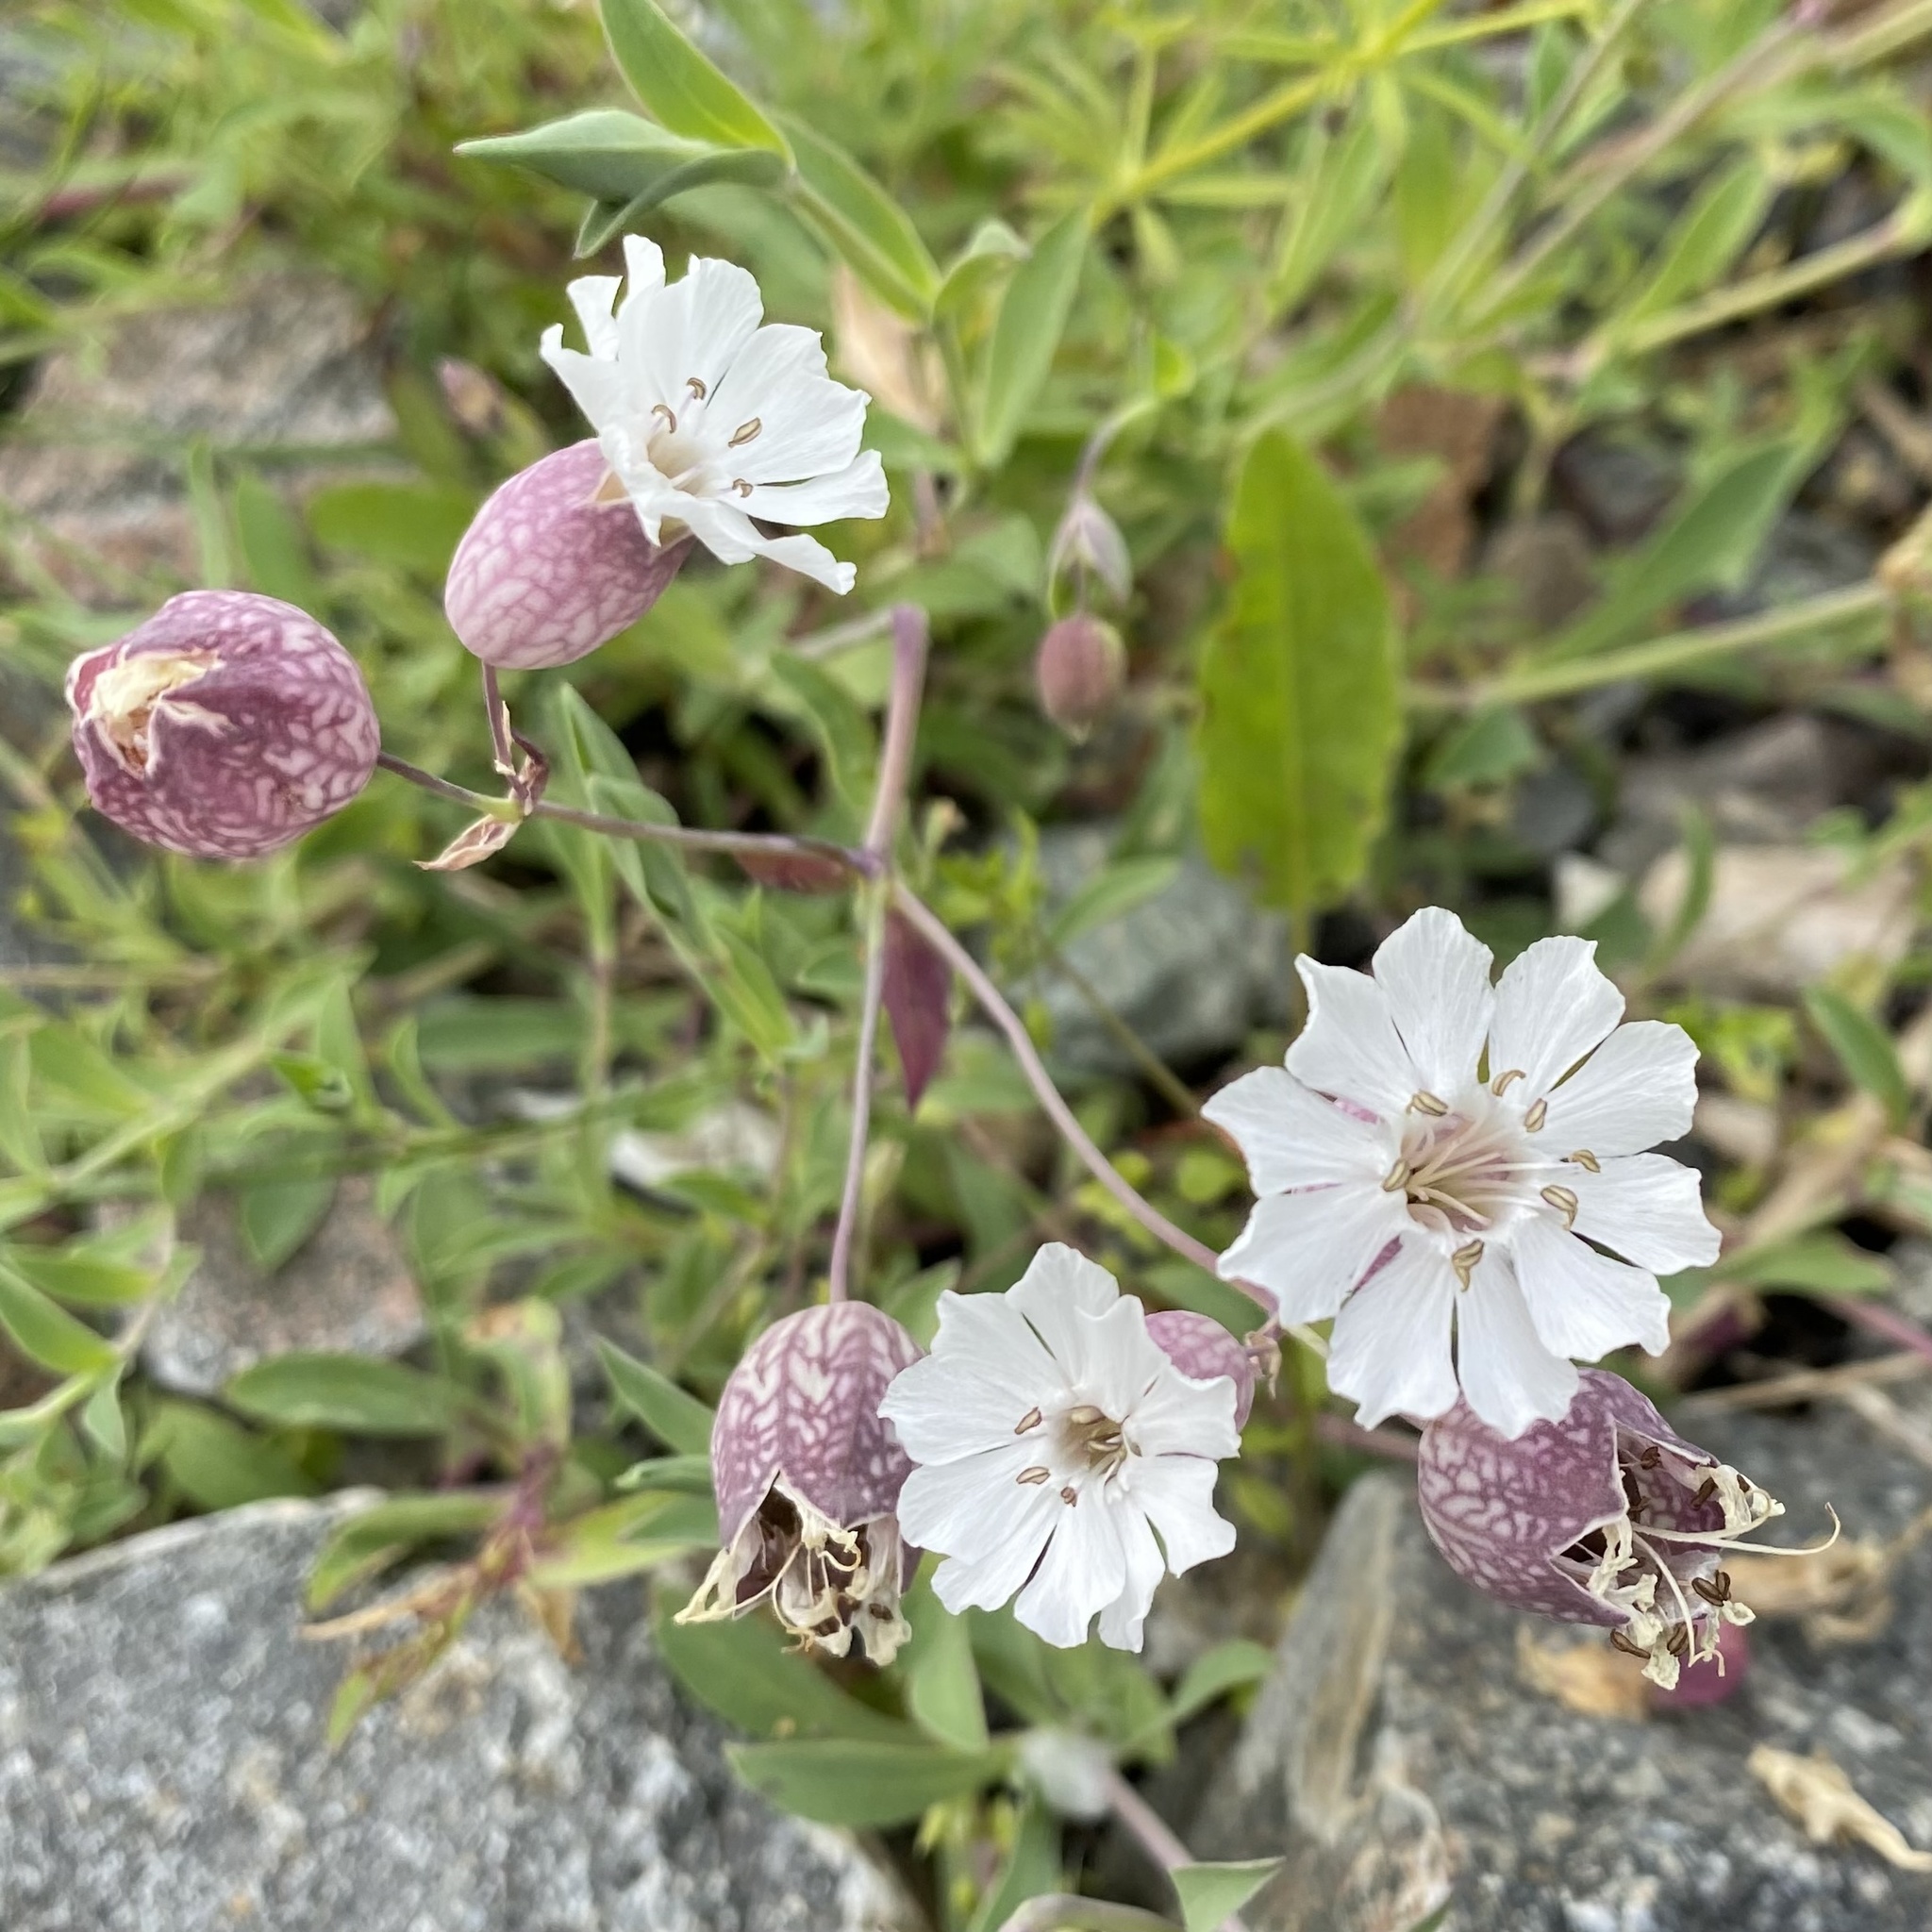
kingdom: Plantae
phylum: Tracheophyta
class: Magnoliopsida
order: Caryophyllales
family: Caryophyllaceae
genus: Silene
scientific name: Silene vulgaris
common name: Bladder campion
